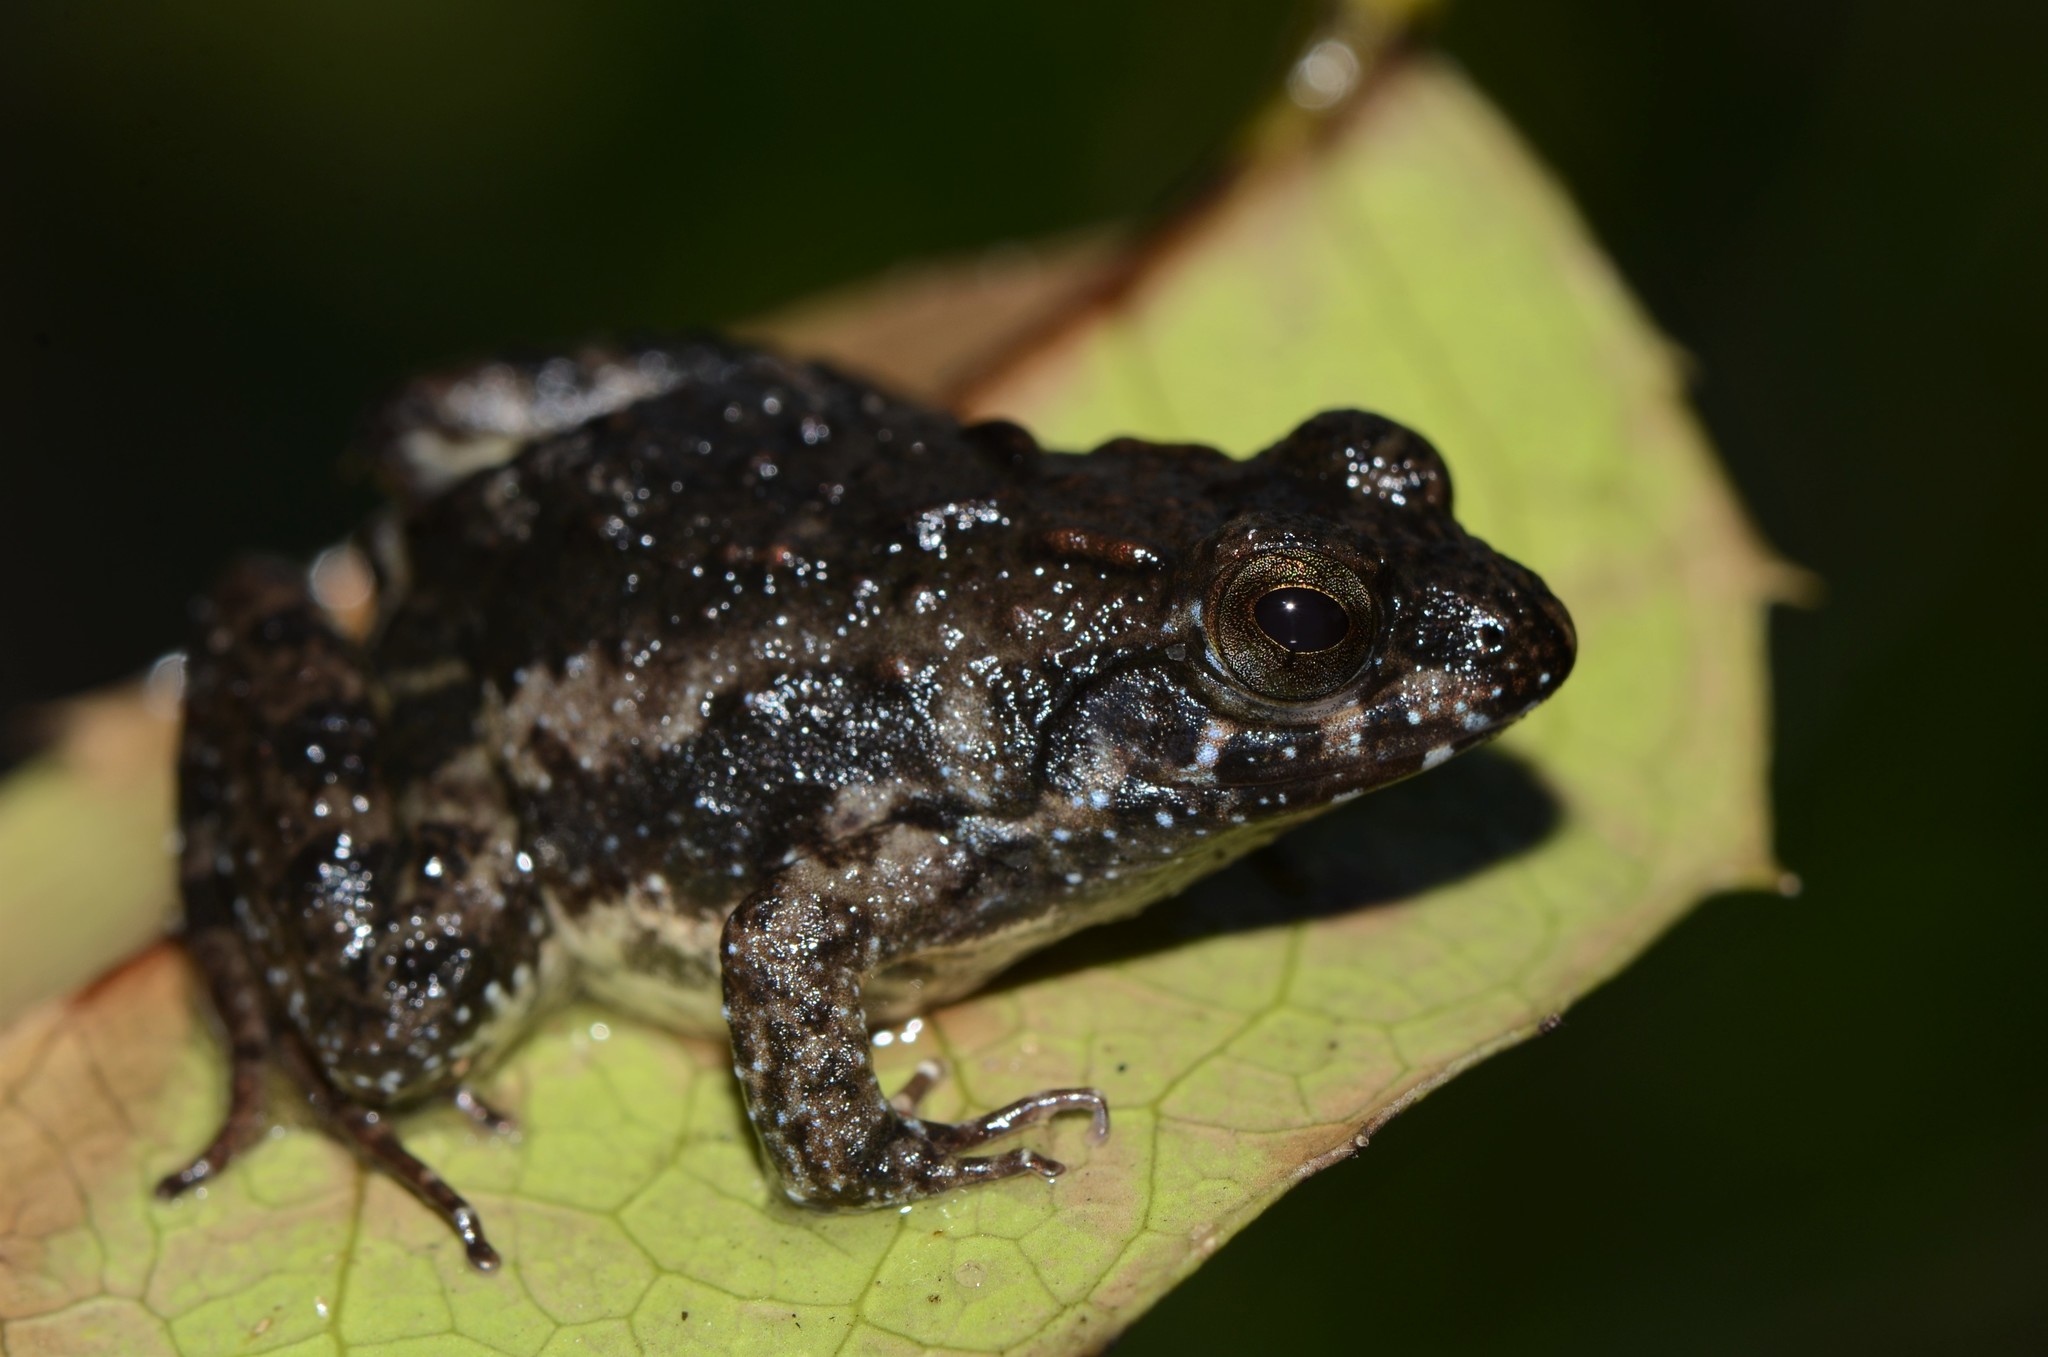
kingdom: Animalia
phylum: Chordata
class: Amphibia
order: Anura
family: Phrynobatrachidae
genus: Phrynobatrachus
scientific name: Phrynobatrachus acridoides
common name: East african puddle frog
